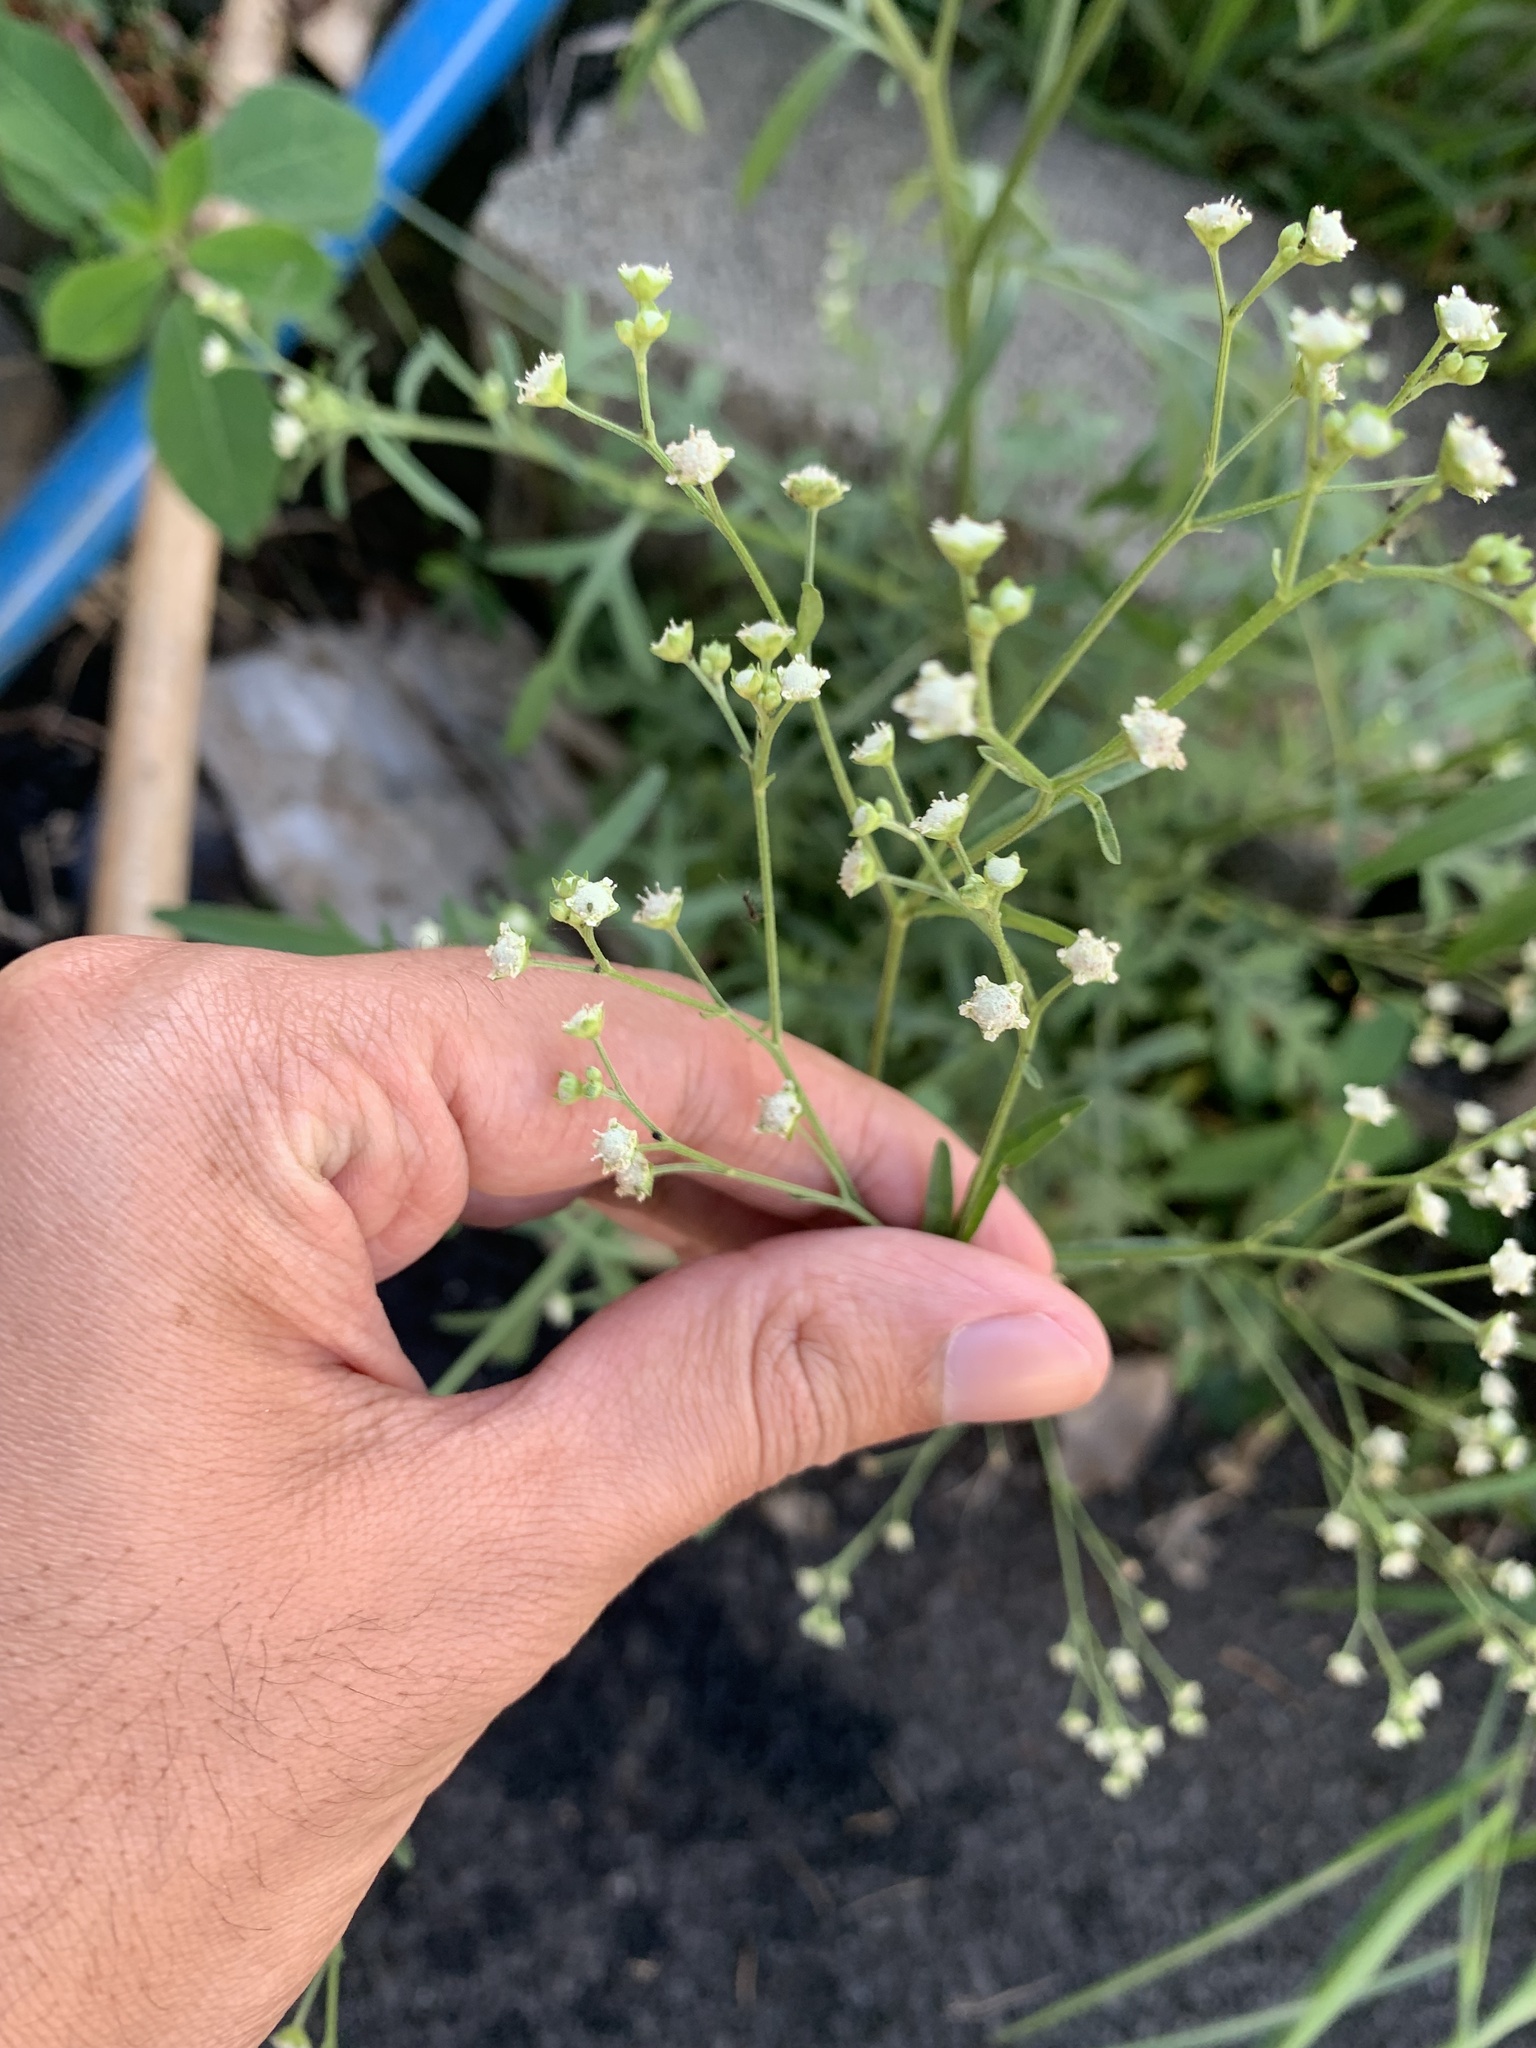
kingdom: Plantae
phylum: Tracheophyta
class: Magnoliopsida
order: Asterales
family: Asteraceae
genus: Parthenium
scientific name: Parthenium hysterophorus
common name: Santa maria feverfew
